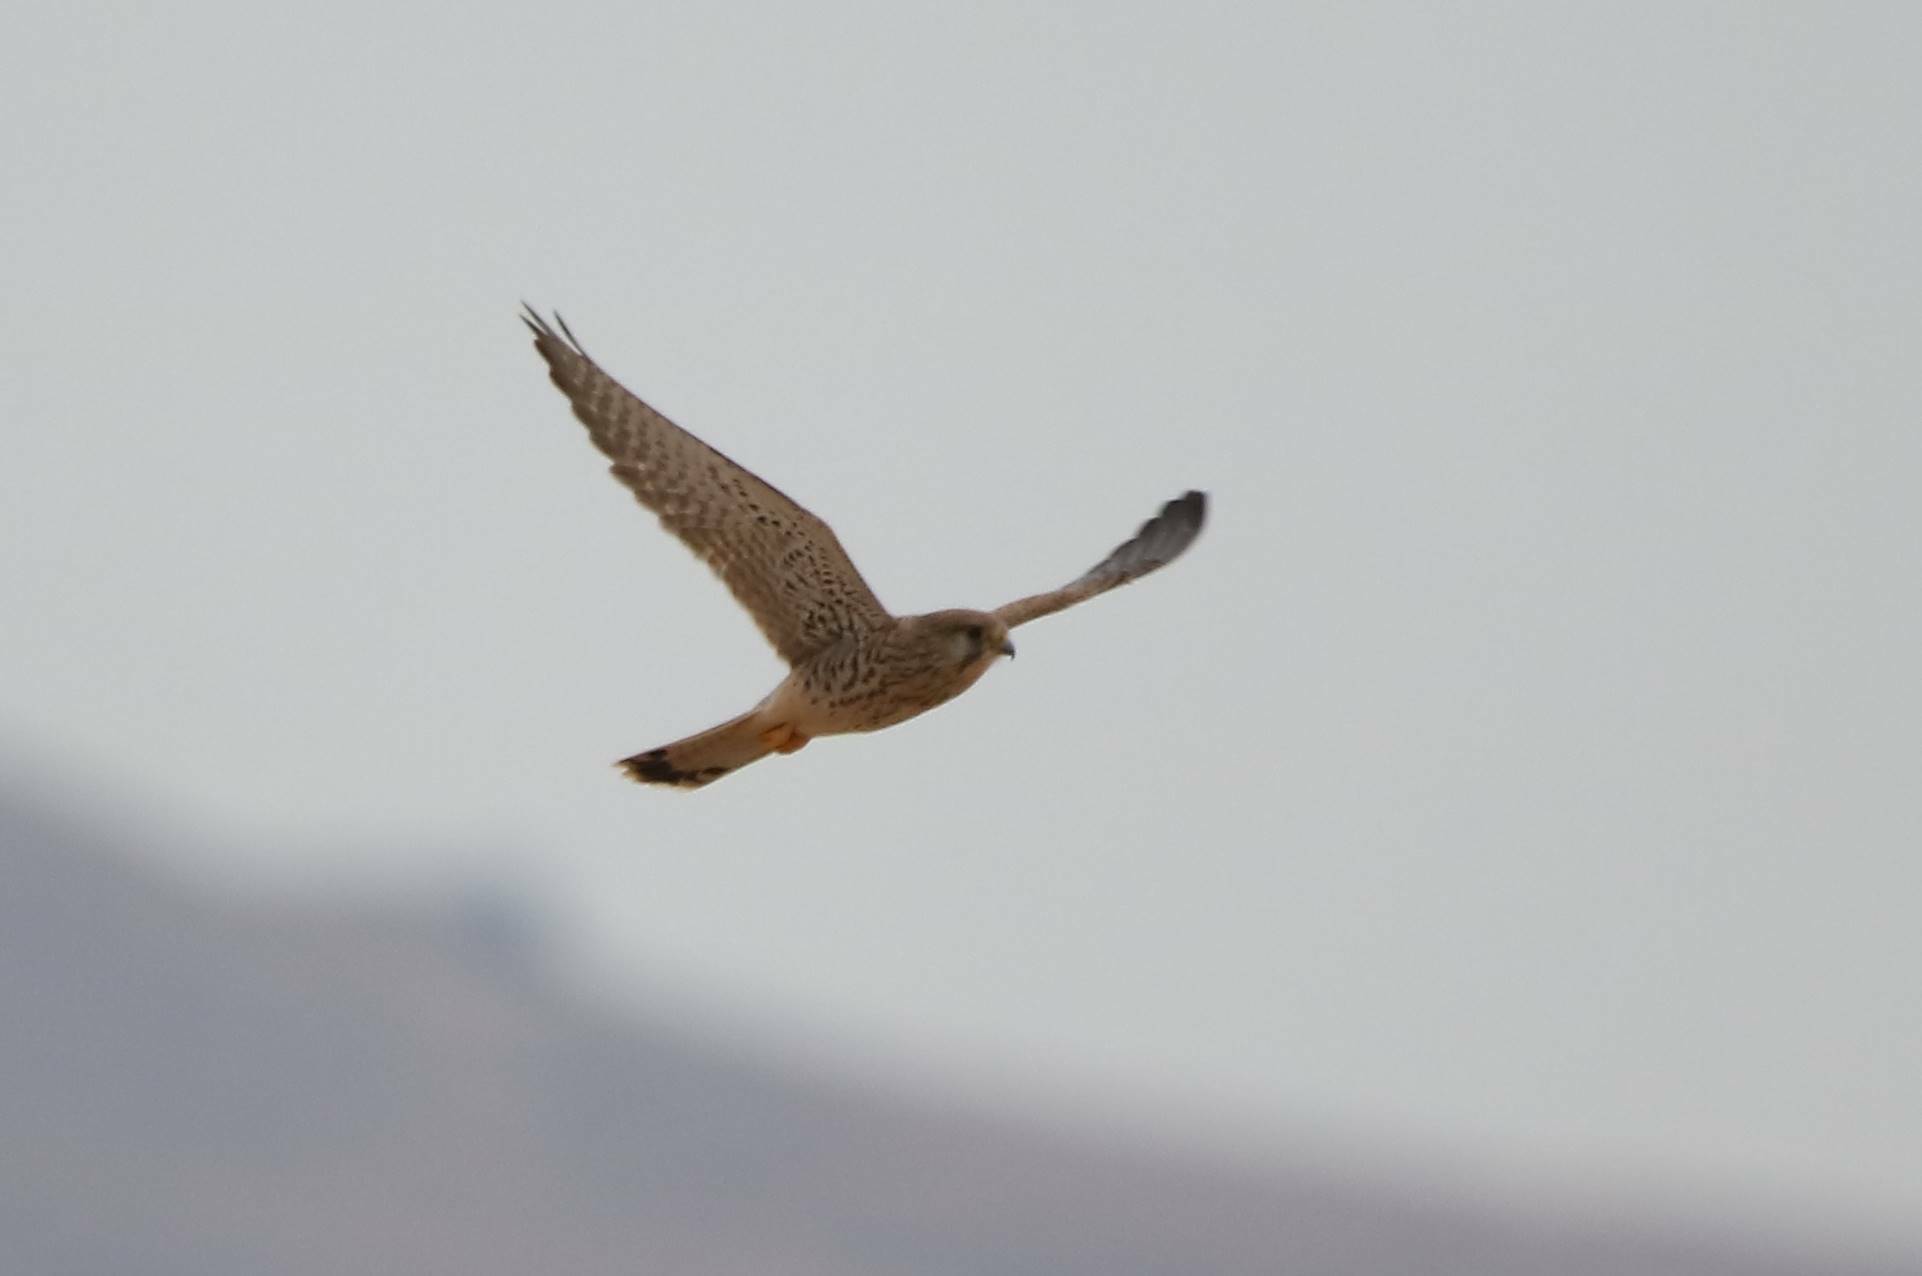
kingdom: Animalia
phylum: Chordata
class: Aves
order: Falconiformes
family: Falconidae
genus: Falco
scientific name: Falco tinnunculus
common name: Common kestrel
